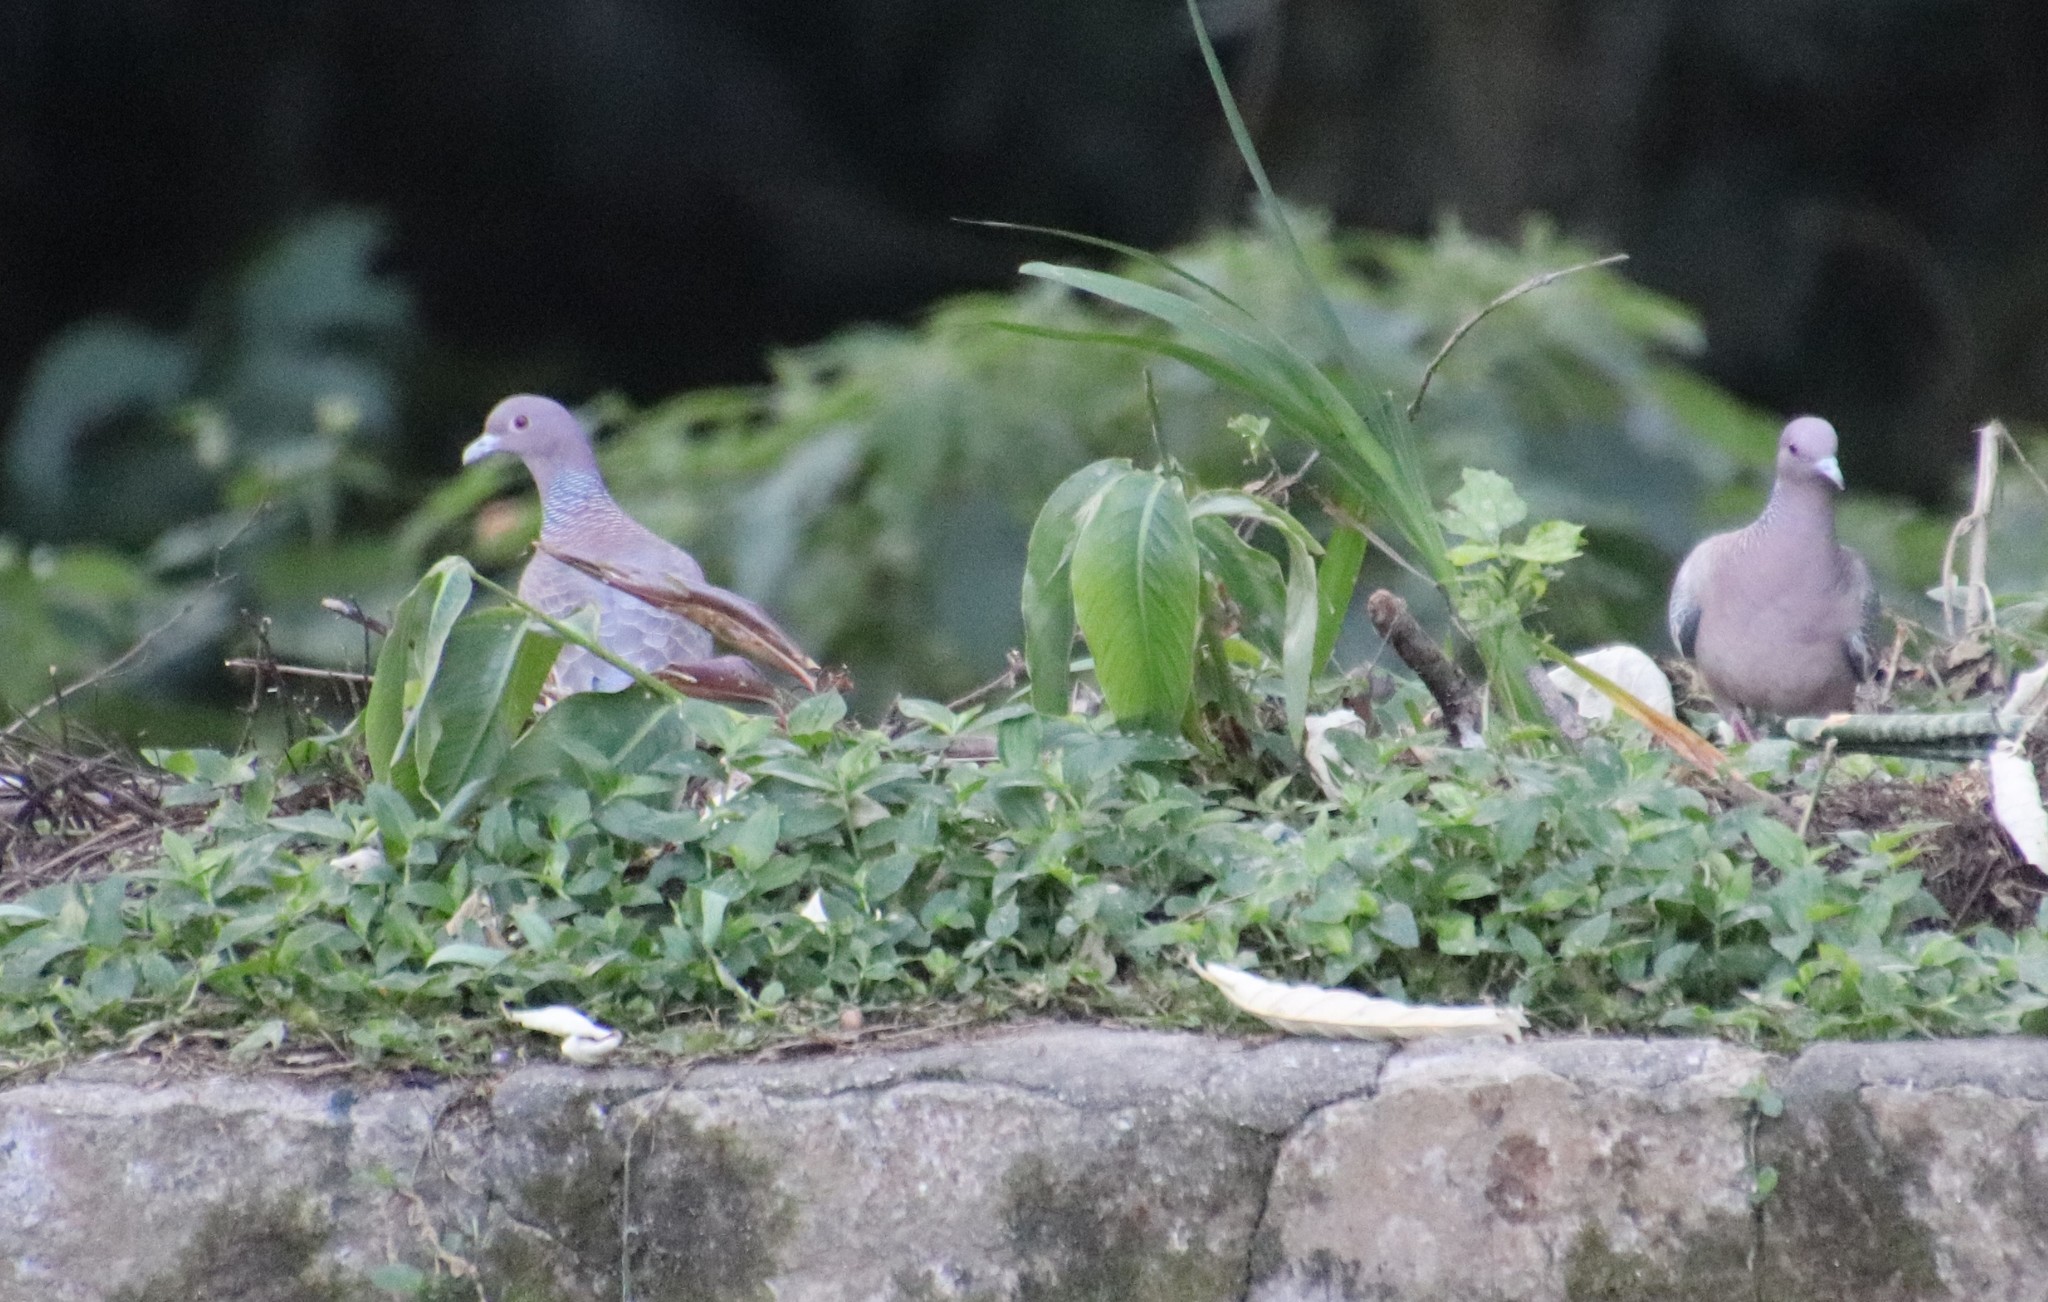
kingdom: Animalia
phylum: Chordata
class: Aves
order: Columbiformes
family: Columbidae
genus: Patagioenas
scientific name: Patagioenas picazuro
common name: Picazuro pigeon
